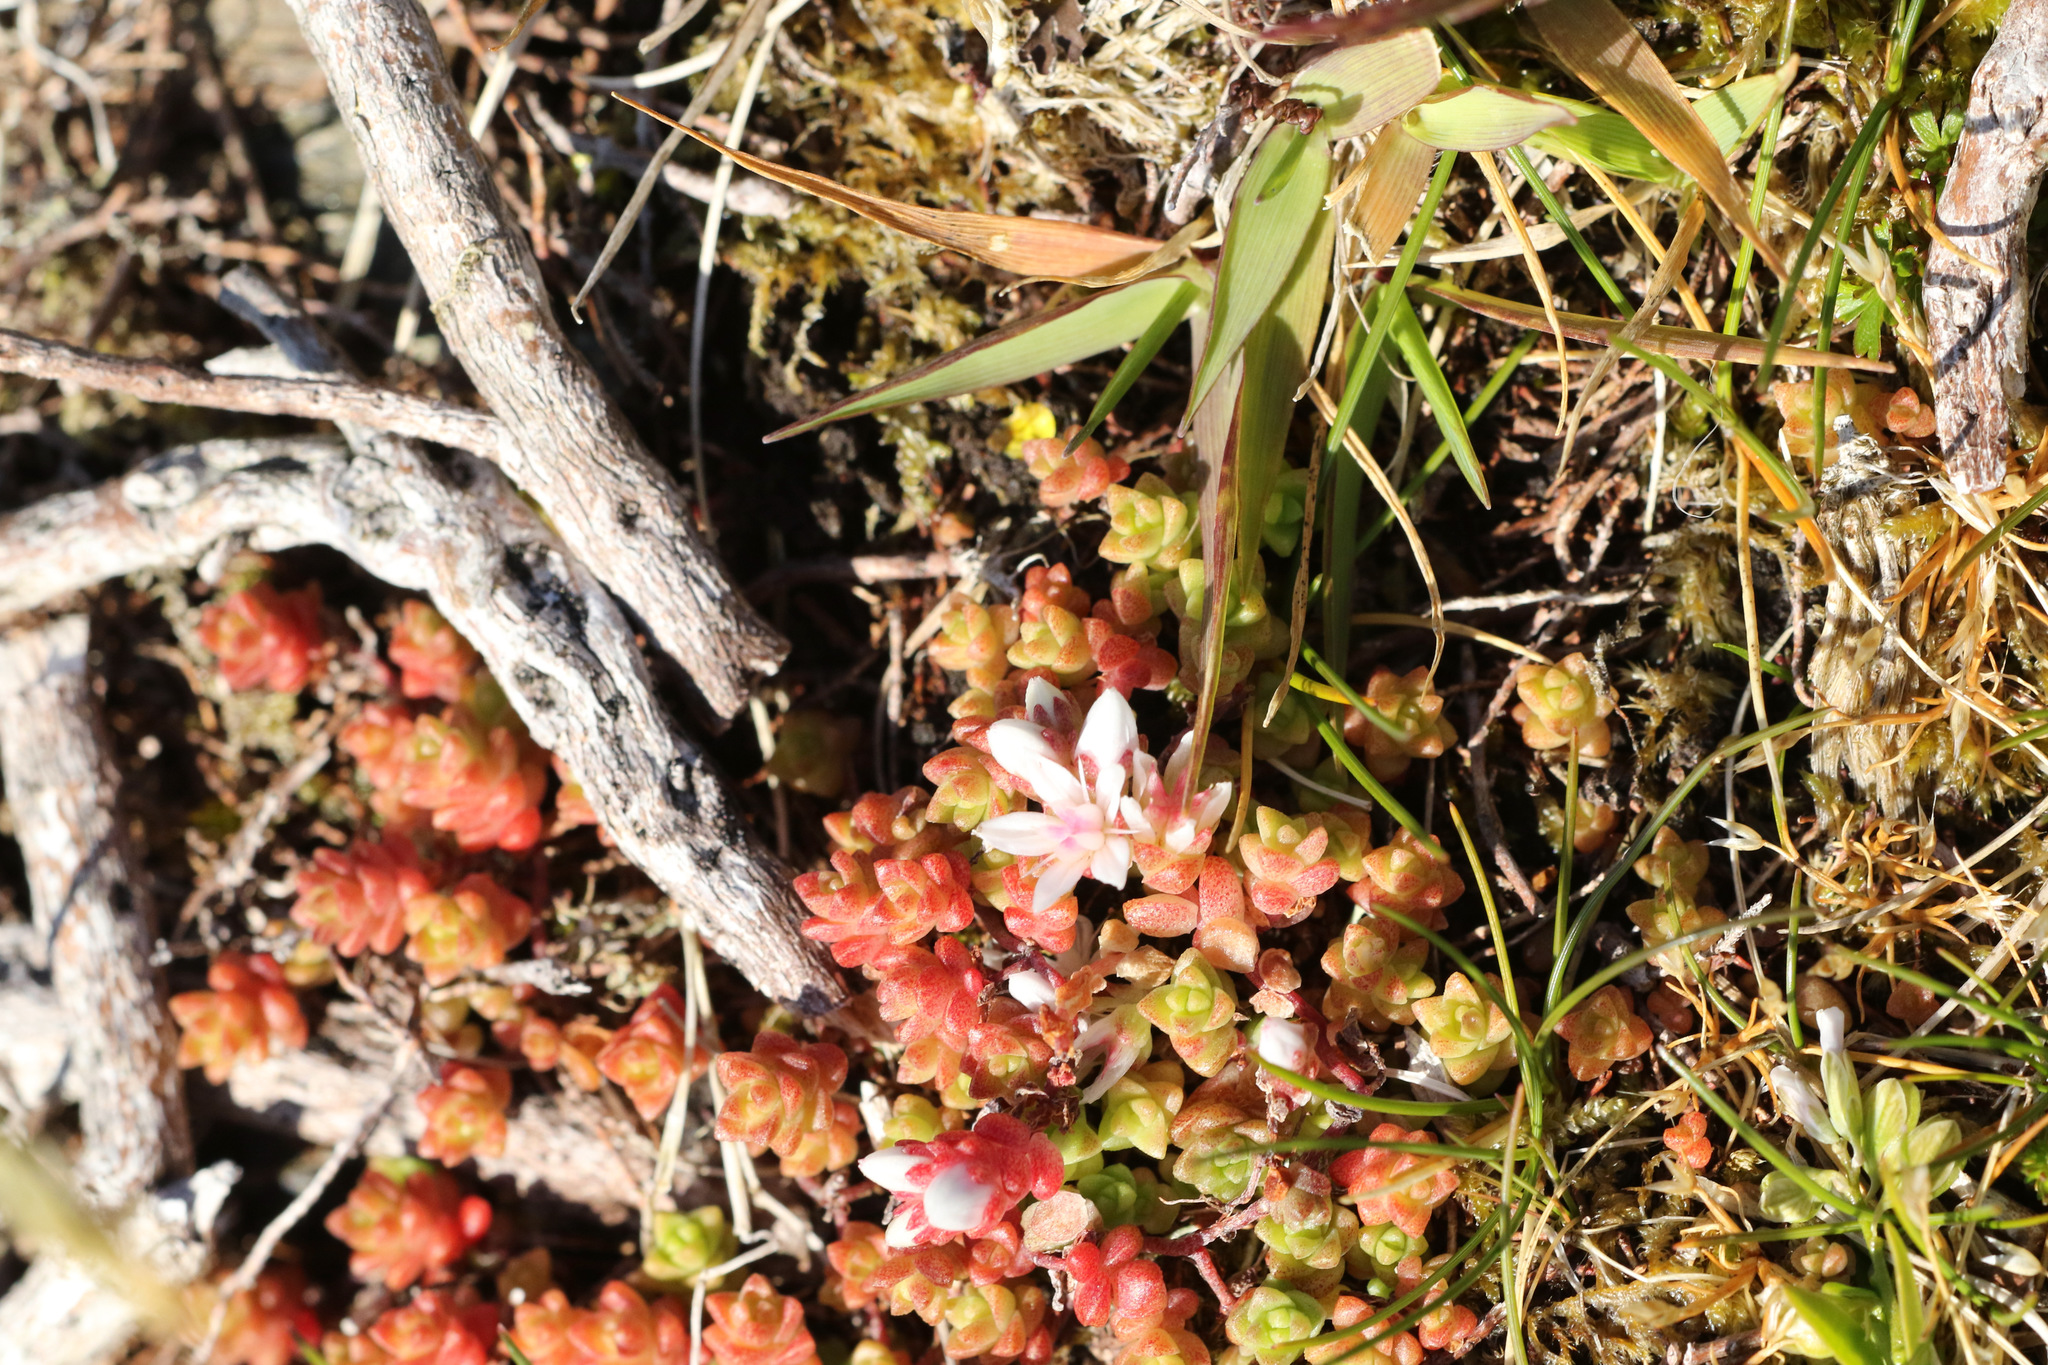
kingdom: Plantae
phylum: Tracheophyta
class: Magnoliopsida
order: Saxifragales
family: Crassulaceae
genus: Sedum
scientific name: Sedum anglicum
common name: English stonecrop
